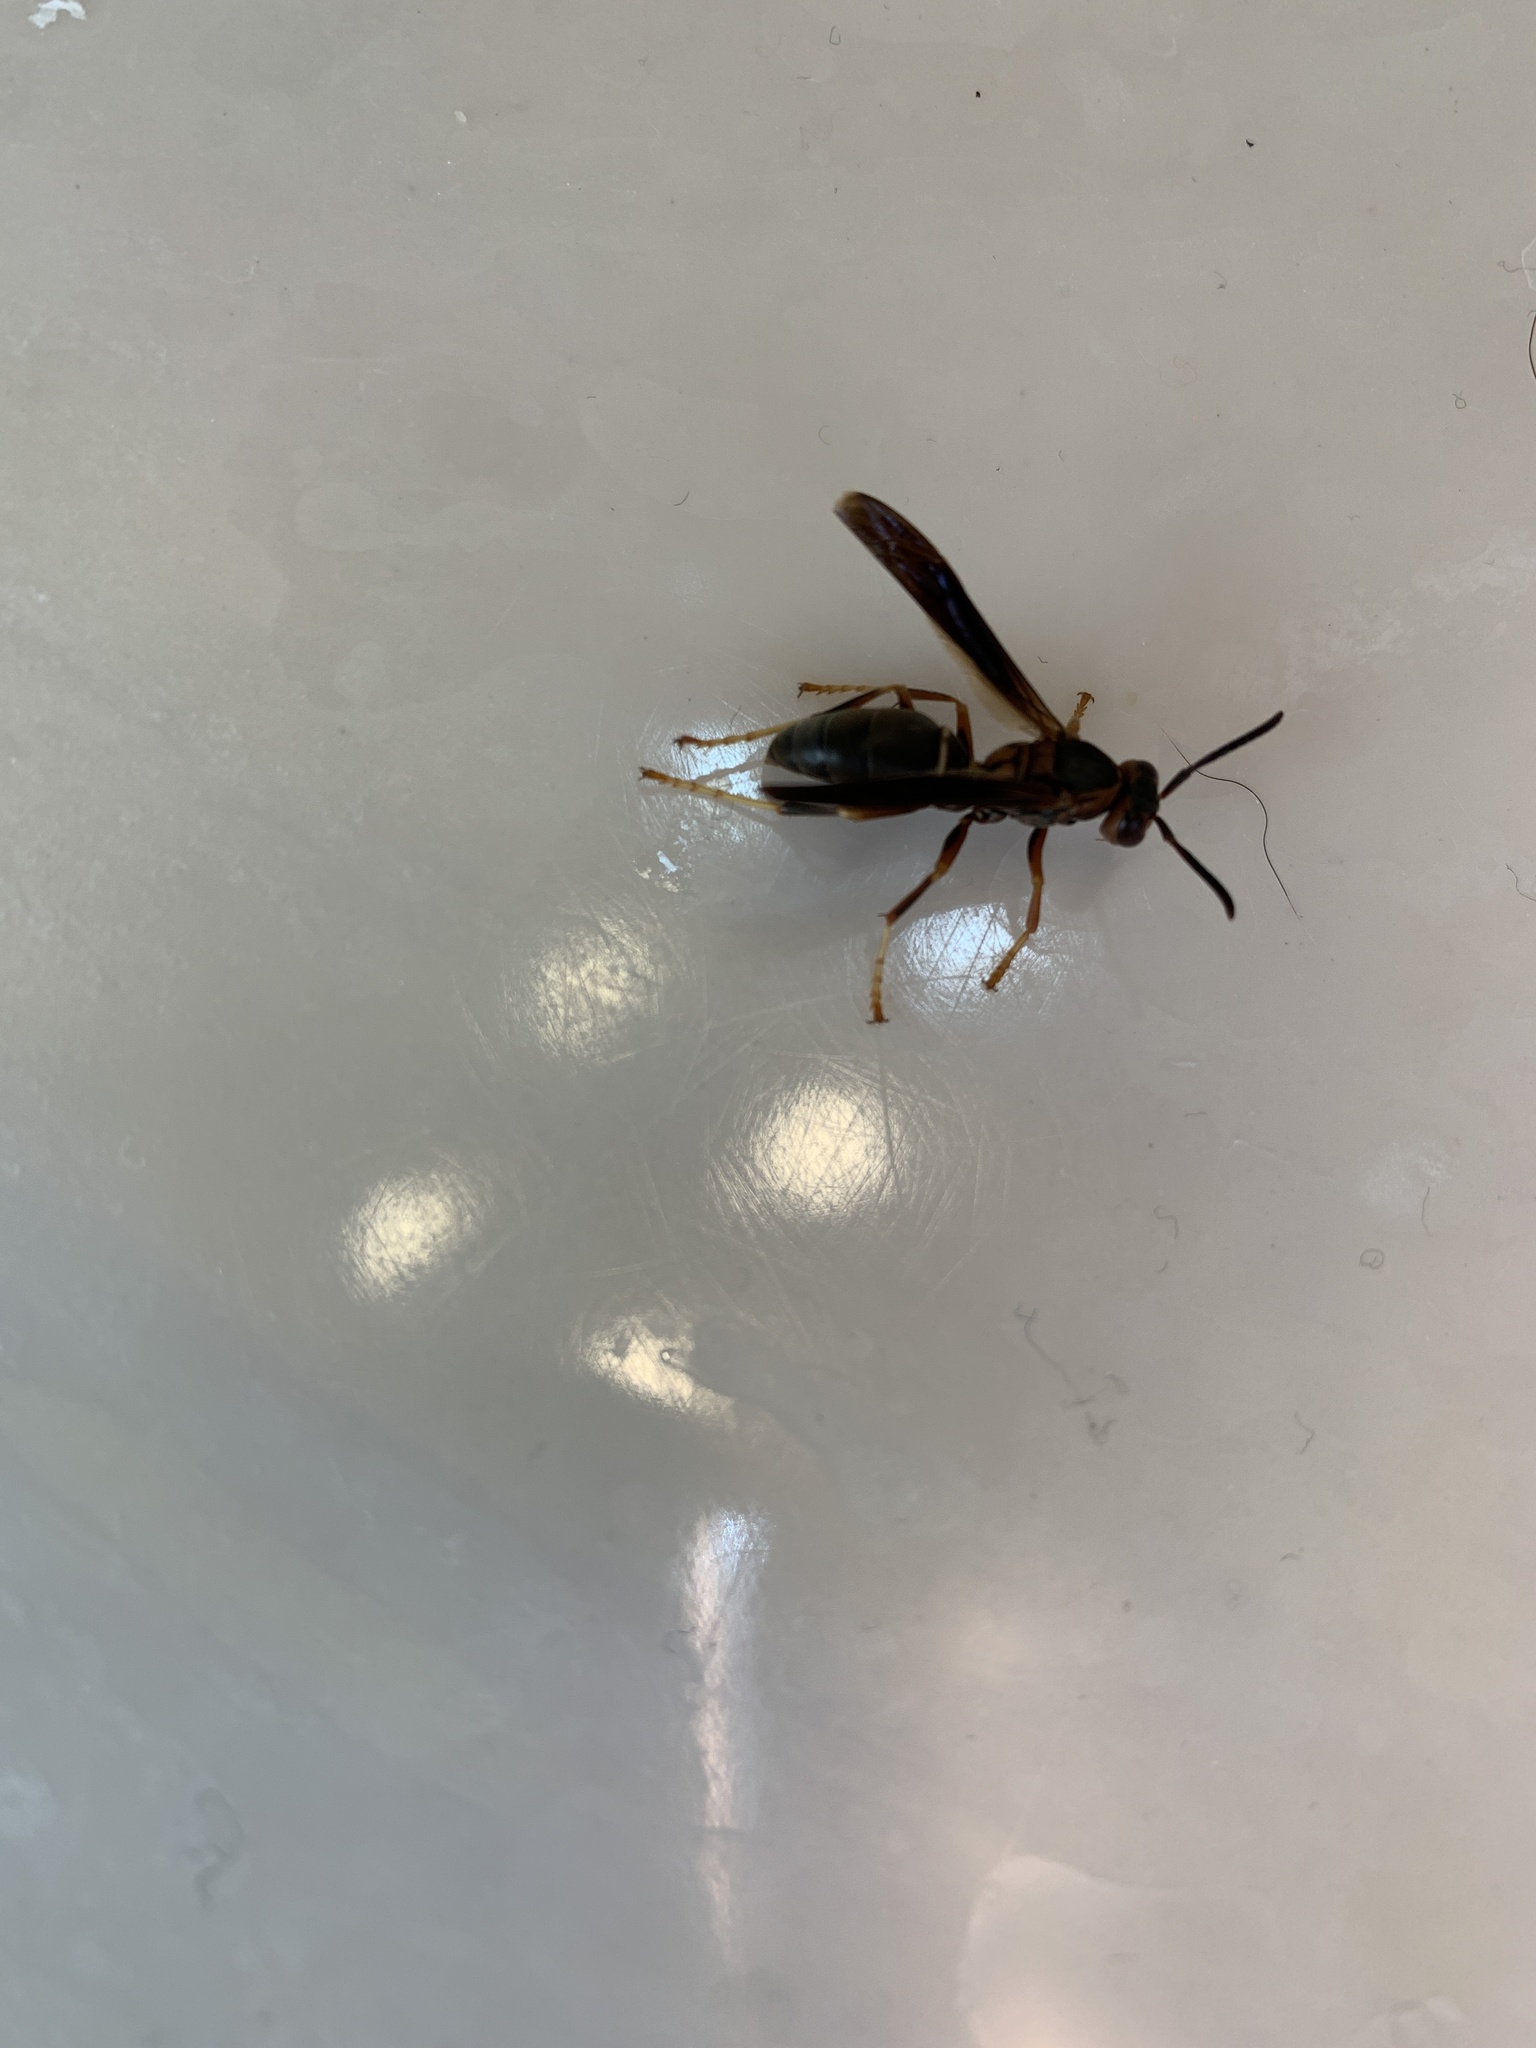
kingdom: Animalia
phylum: Arthropoda
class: Insecta
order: Hymenoptera
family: Eumenidae
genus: Polistes
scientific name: Polistes metricus
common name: Metric paper wasp
